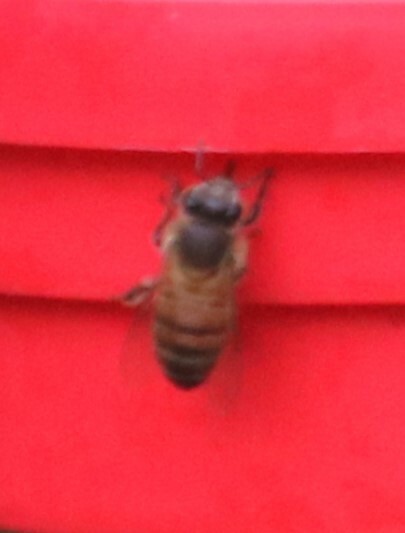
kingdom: Animalia
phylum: Arthropoda
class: Insecta
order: Hymenoptera
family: Apidae
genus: Apis
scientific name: Apis mellifera
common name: Honey bee
